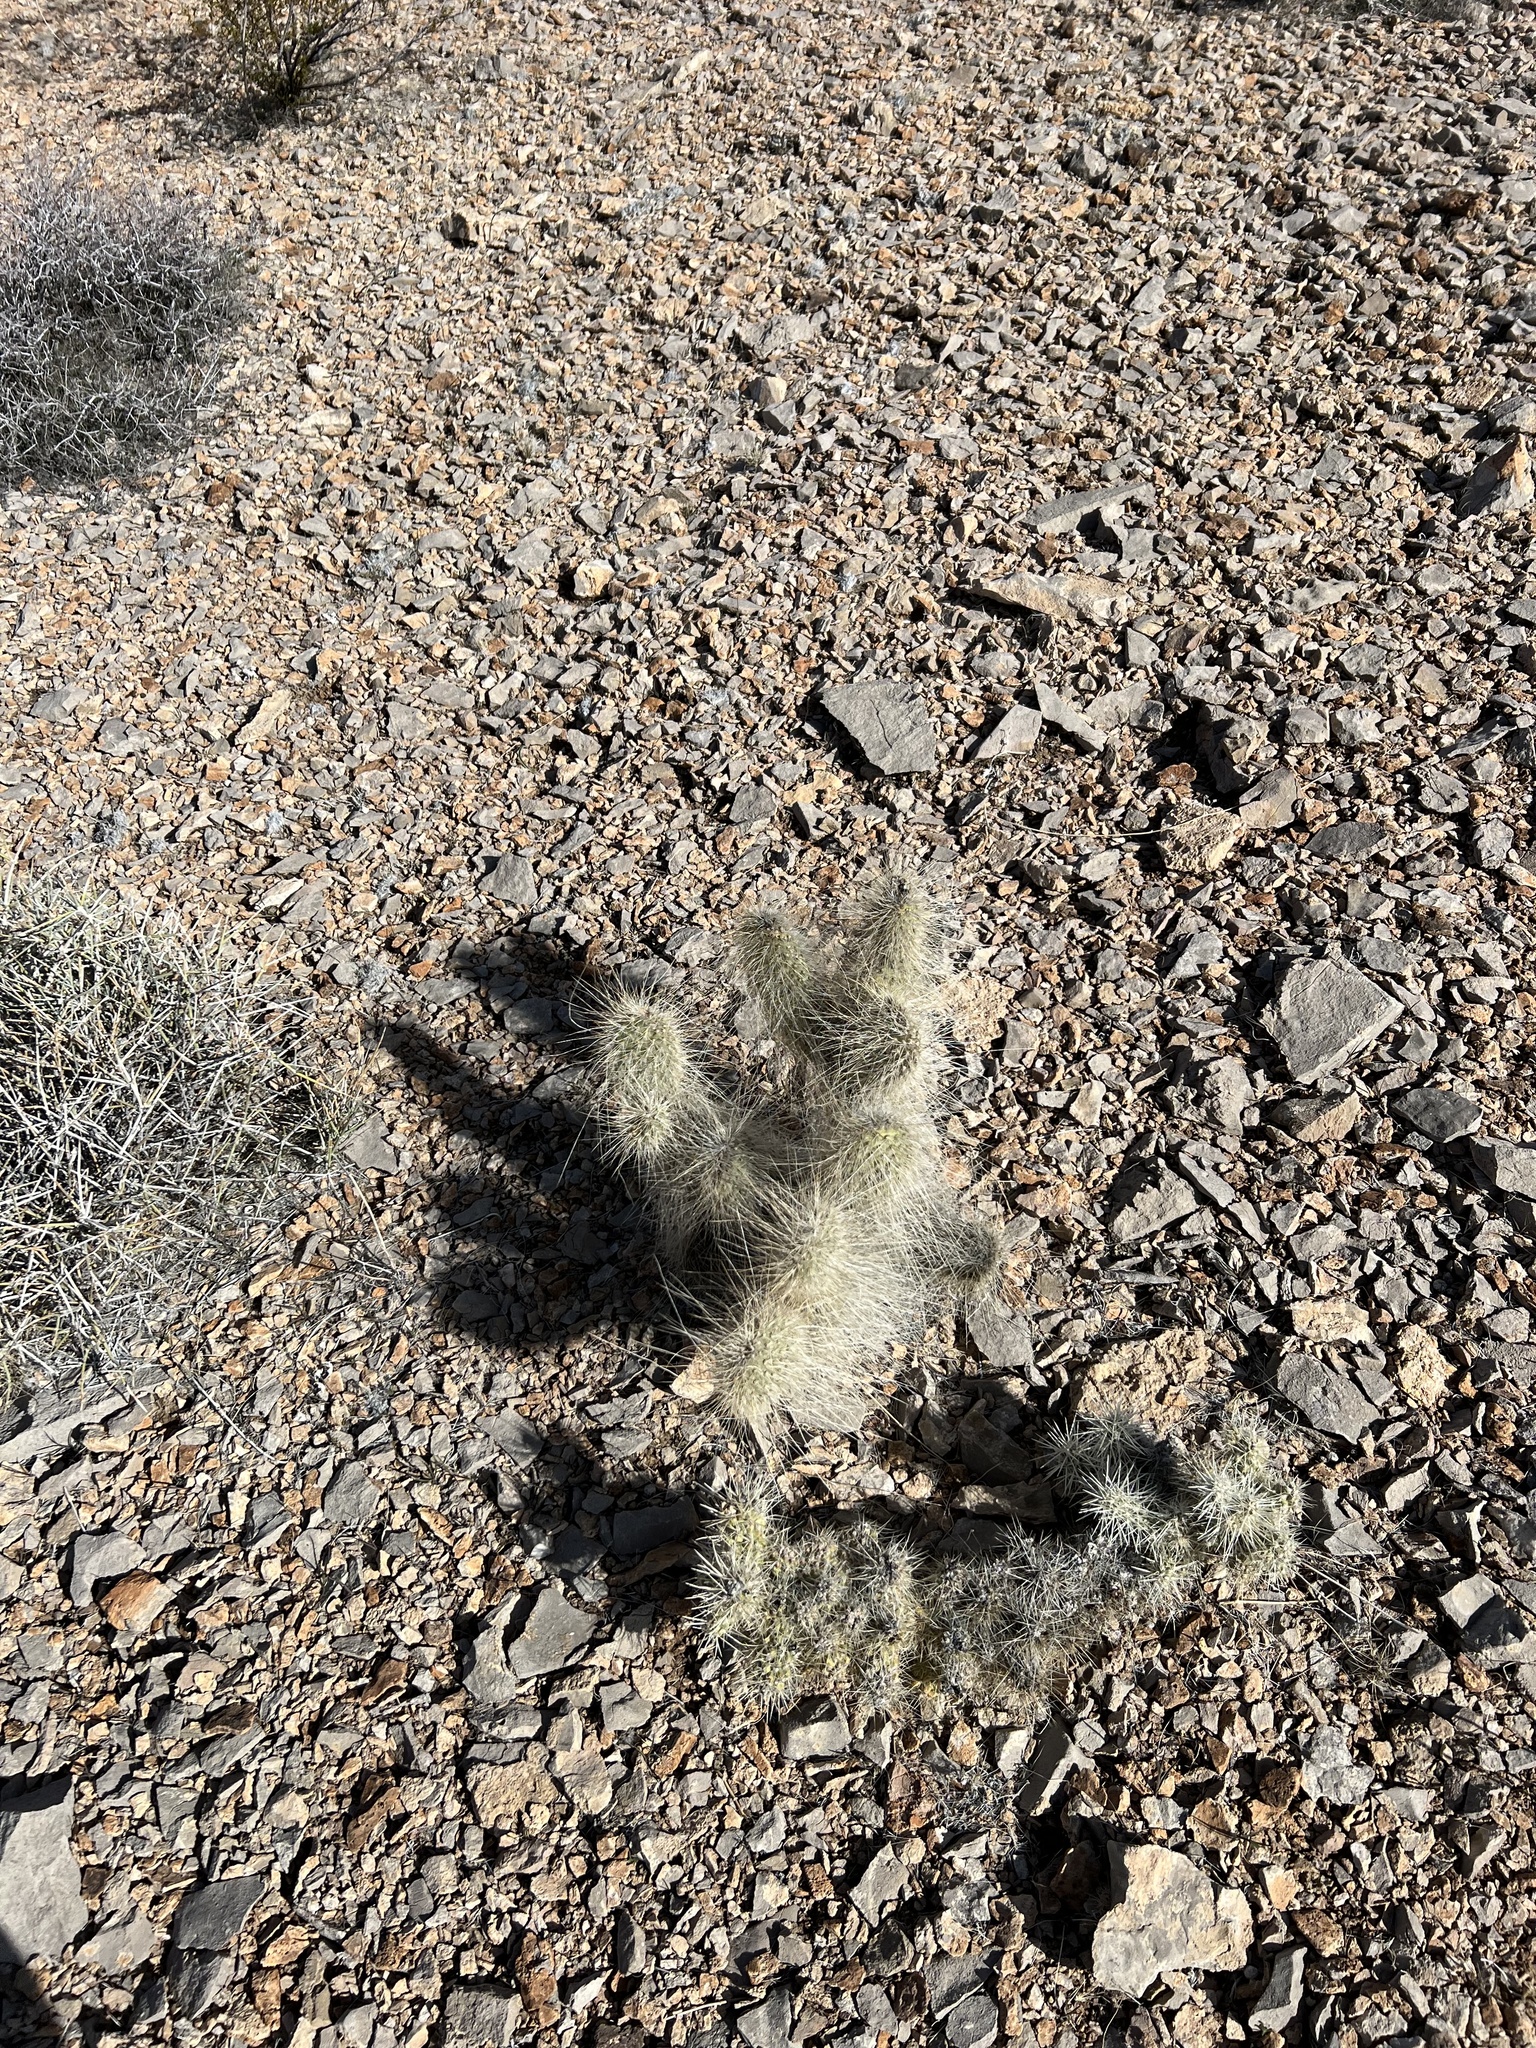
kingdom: Plantae
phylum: Tracheophyta
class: Magnoliopsida
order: Caryophyllales
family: Cactaceae
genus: Opuntia
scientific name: Opuntia polyacantha
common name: Plains prickly-pear
